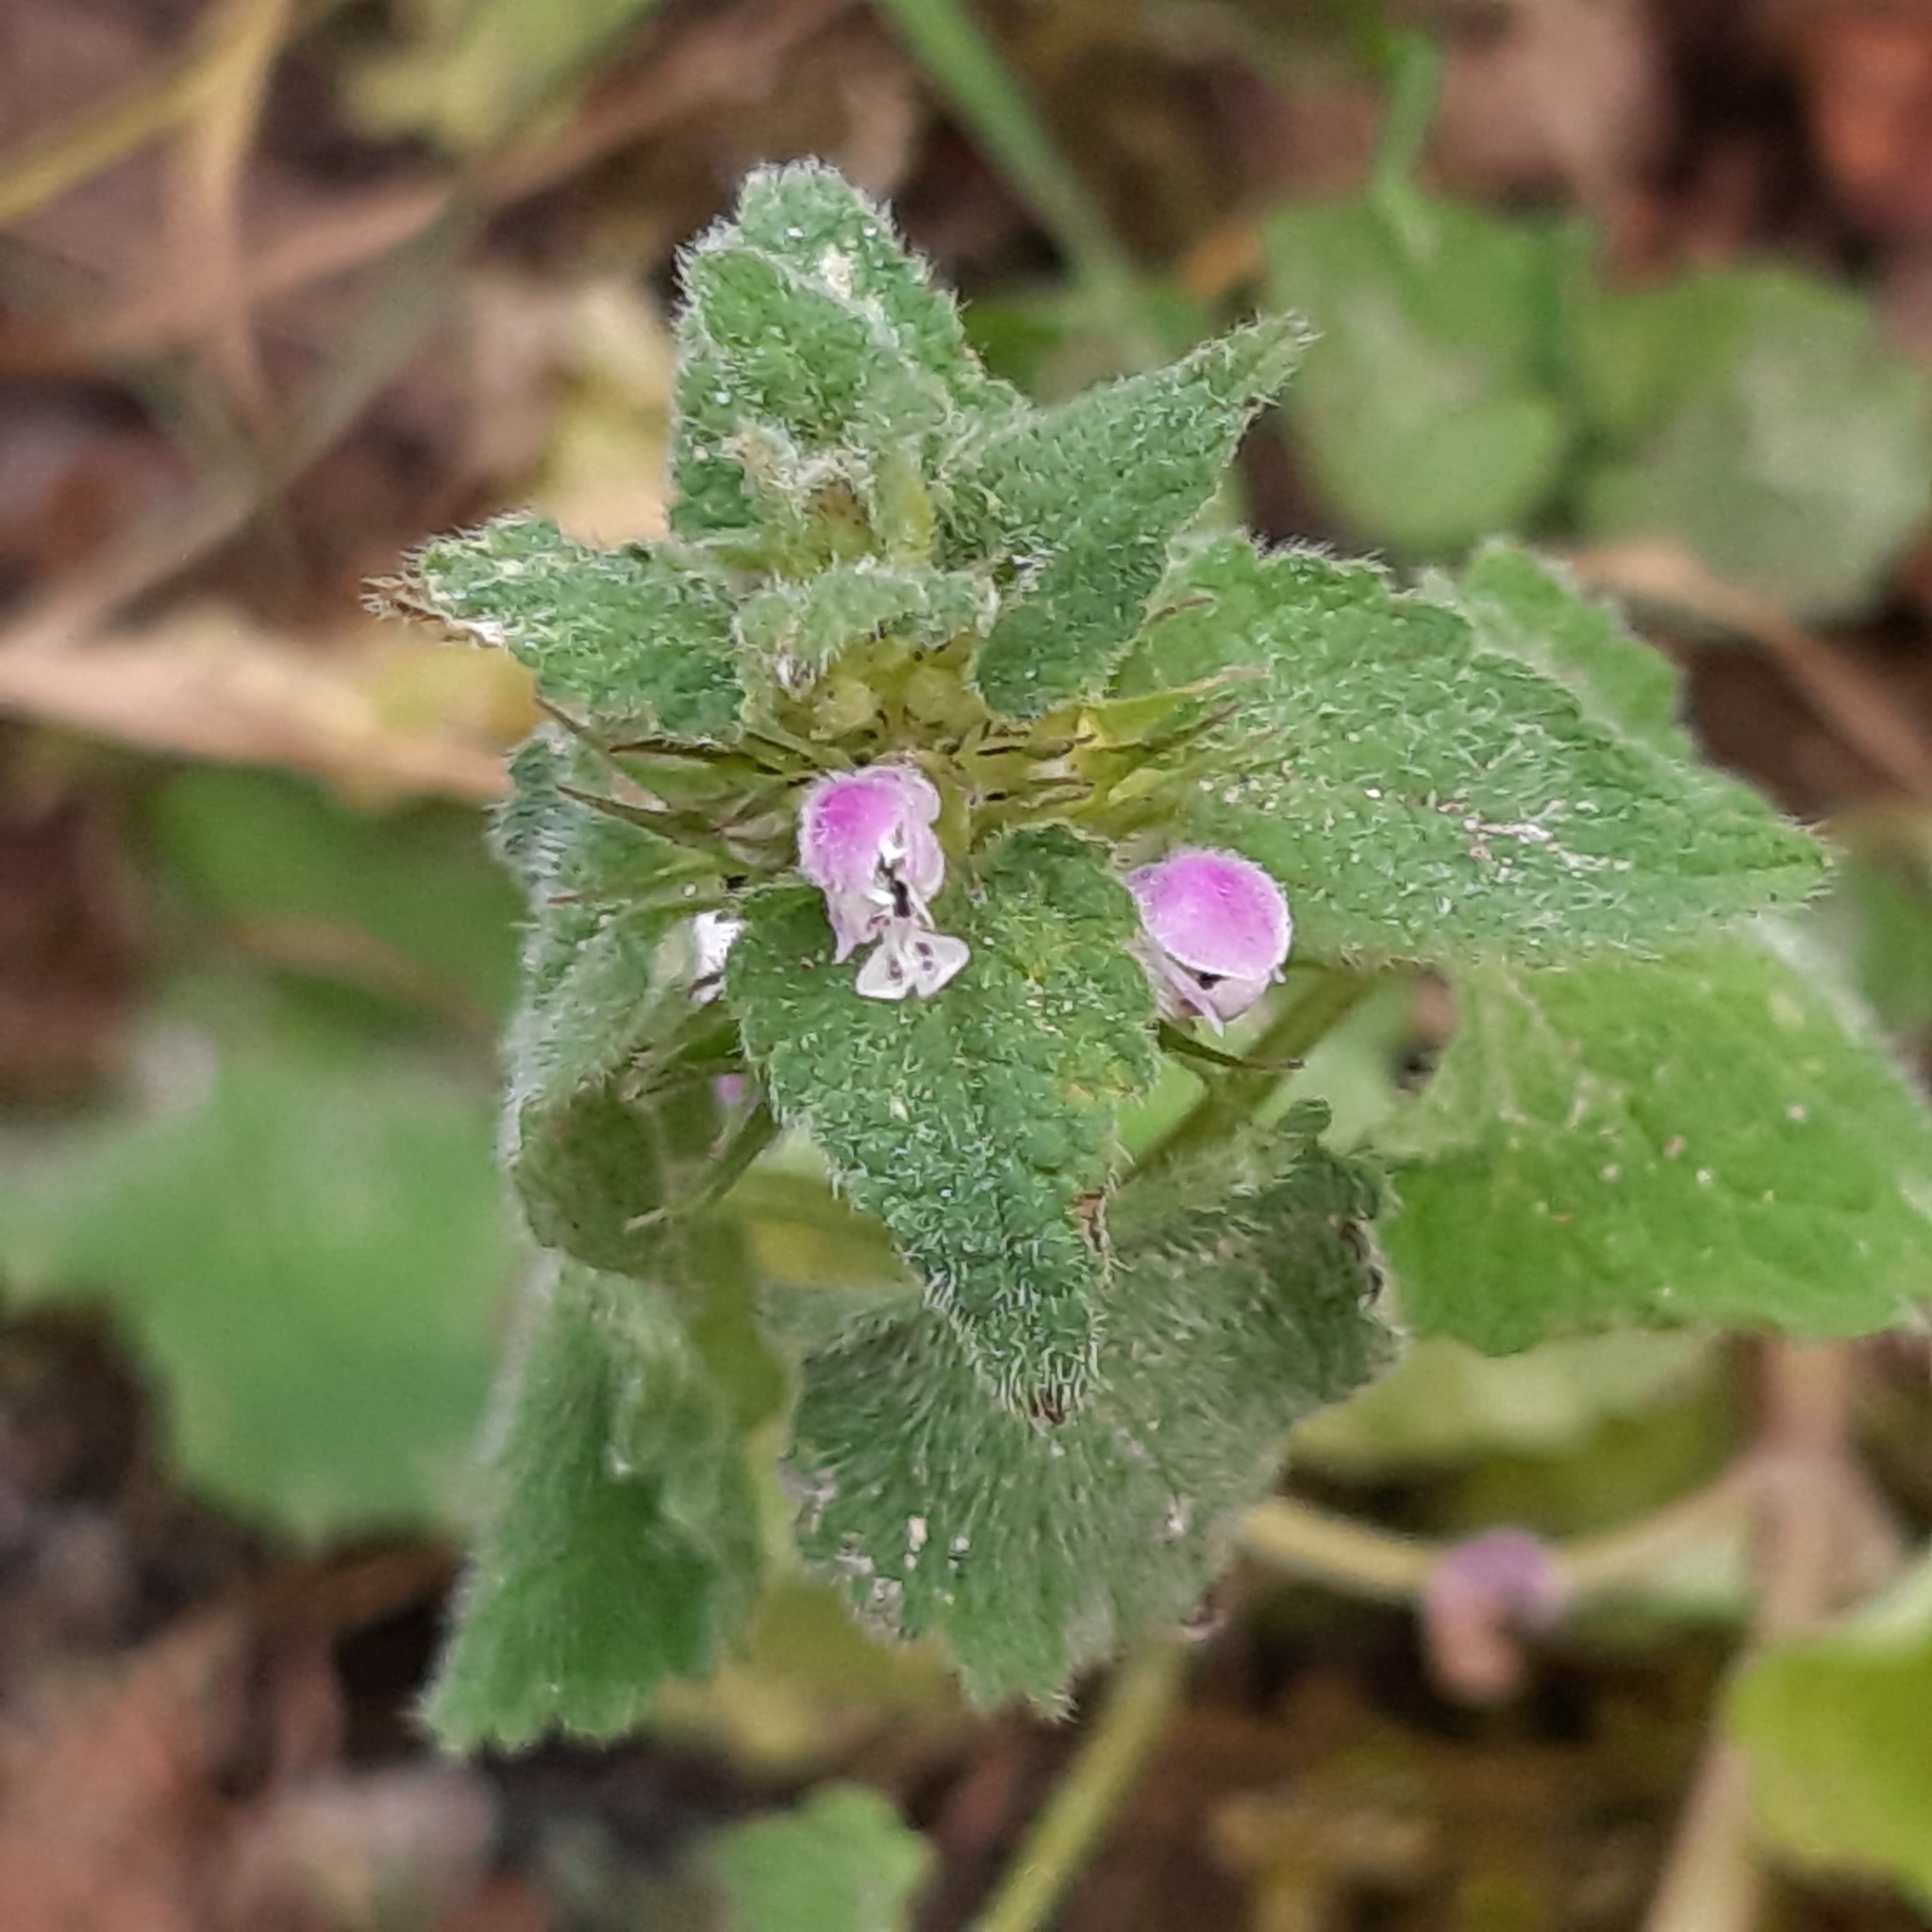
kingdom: Plantae
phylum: Tracheophyta
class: Magnoliopsida
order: Lamiales
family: Lamiaceae
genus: Lamium
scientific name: Lamium purpureum
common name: Red dead-nettle
